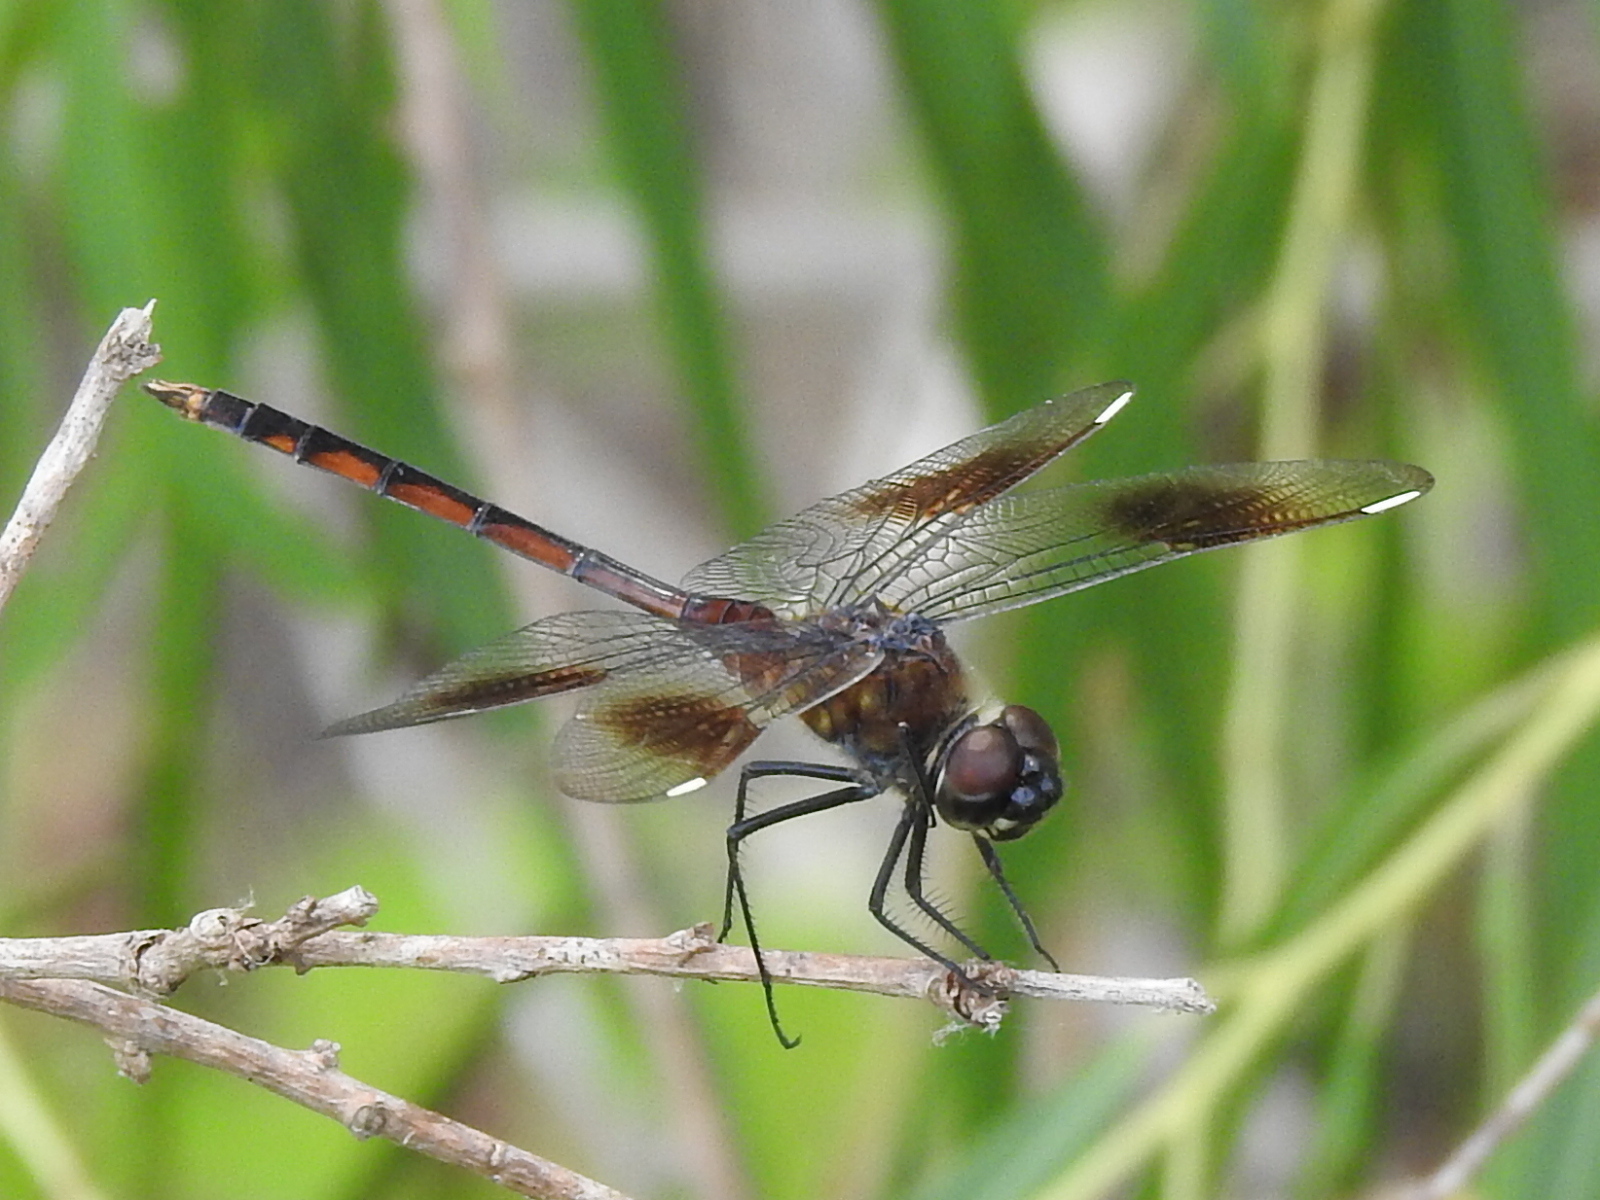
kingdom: Animalia
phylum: Arthropoda
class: Insecta
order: Odonata
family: Libellulidae
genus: Brachymesia
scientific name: Brachymesia gravida
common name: Four-spotted pennant
